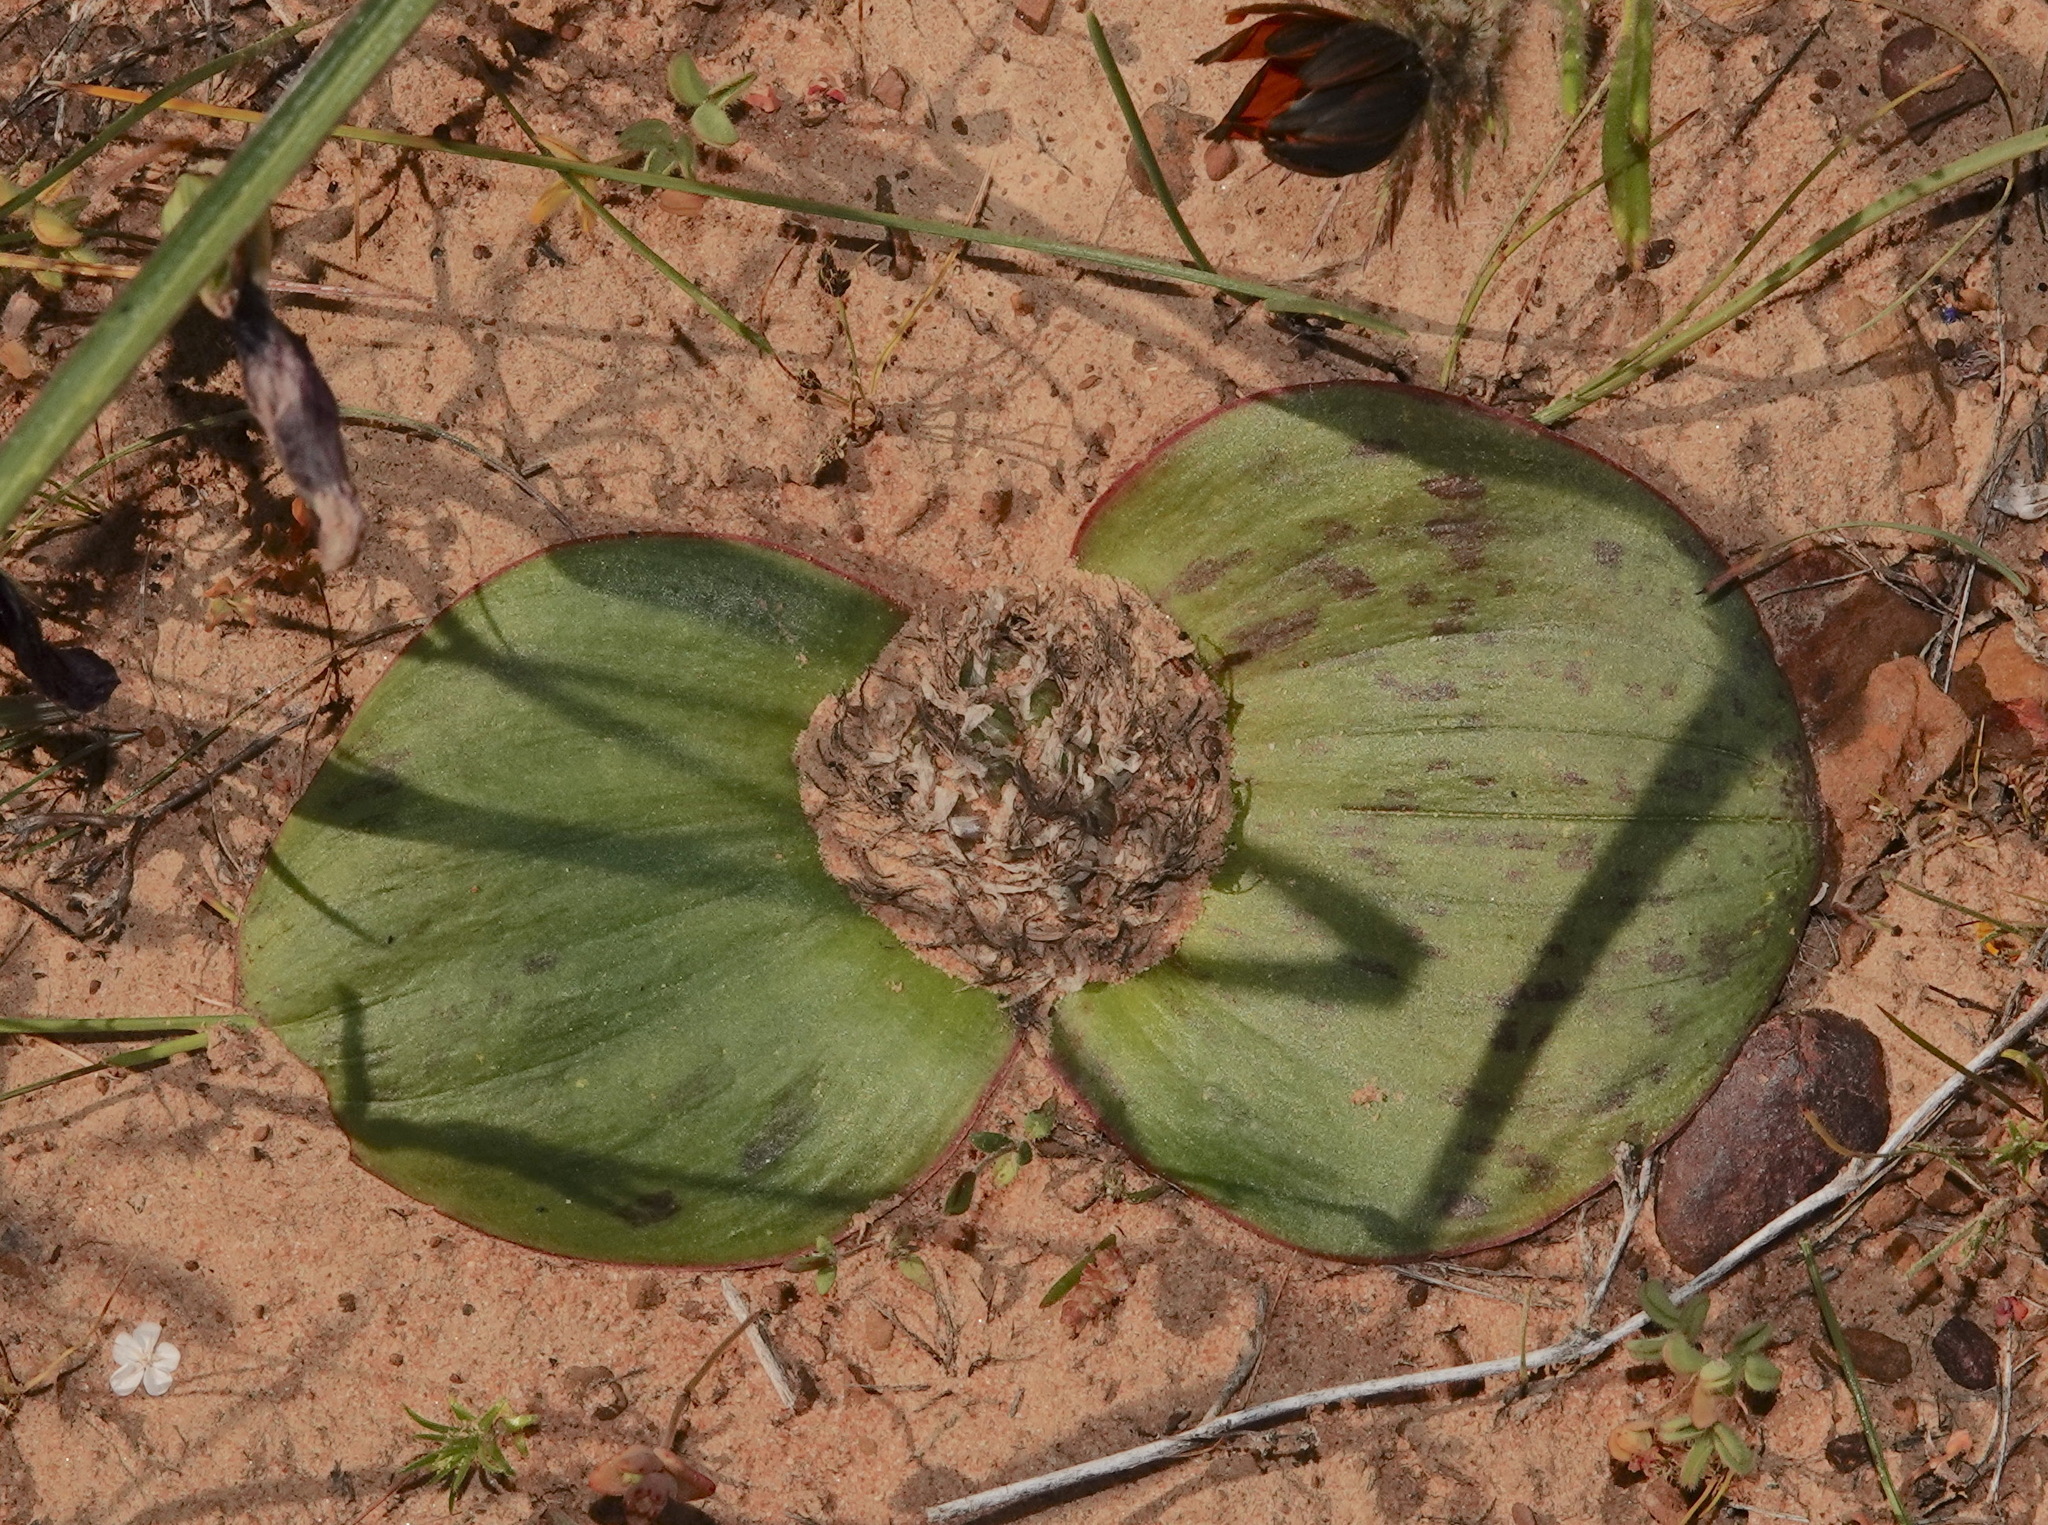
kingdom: Plantae
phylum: Tracheophyta
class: Liliopsida
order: Asparagales
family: Asparagaceae
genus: Massonia
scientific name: Massonia depressa
